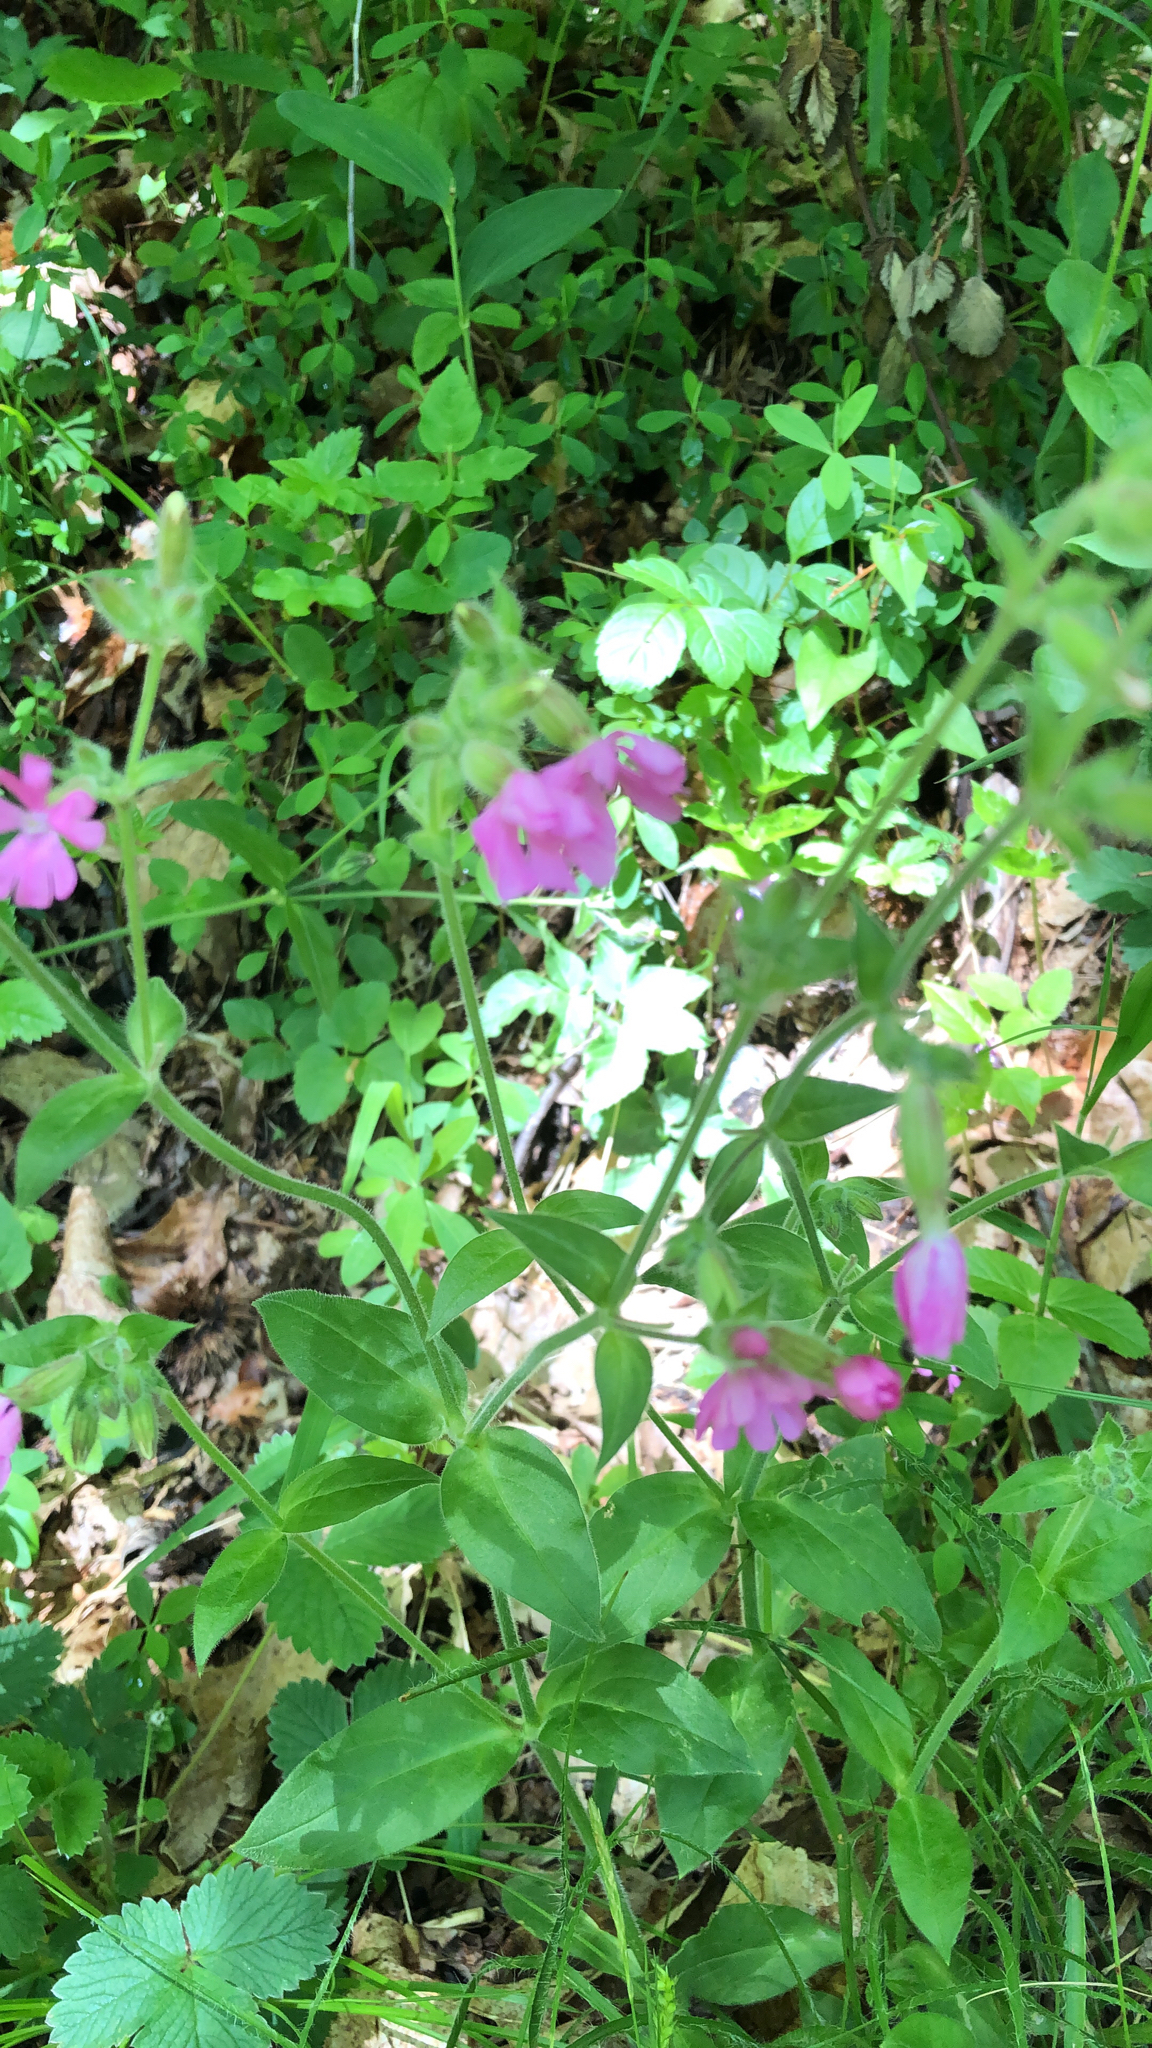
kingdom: Plantae
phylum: Tracheophyta
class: Magnoliopsida
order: Caryophyllales
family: Caryophyllaceae
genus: Silene
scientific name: Silene dioica
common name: Red campion
